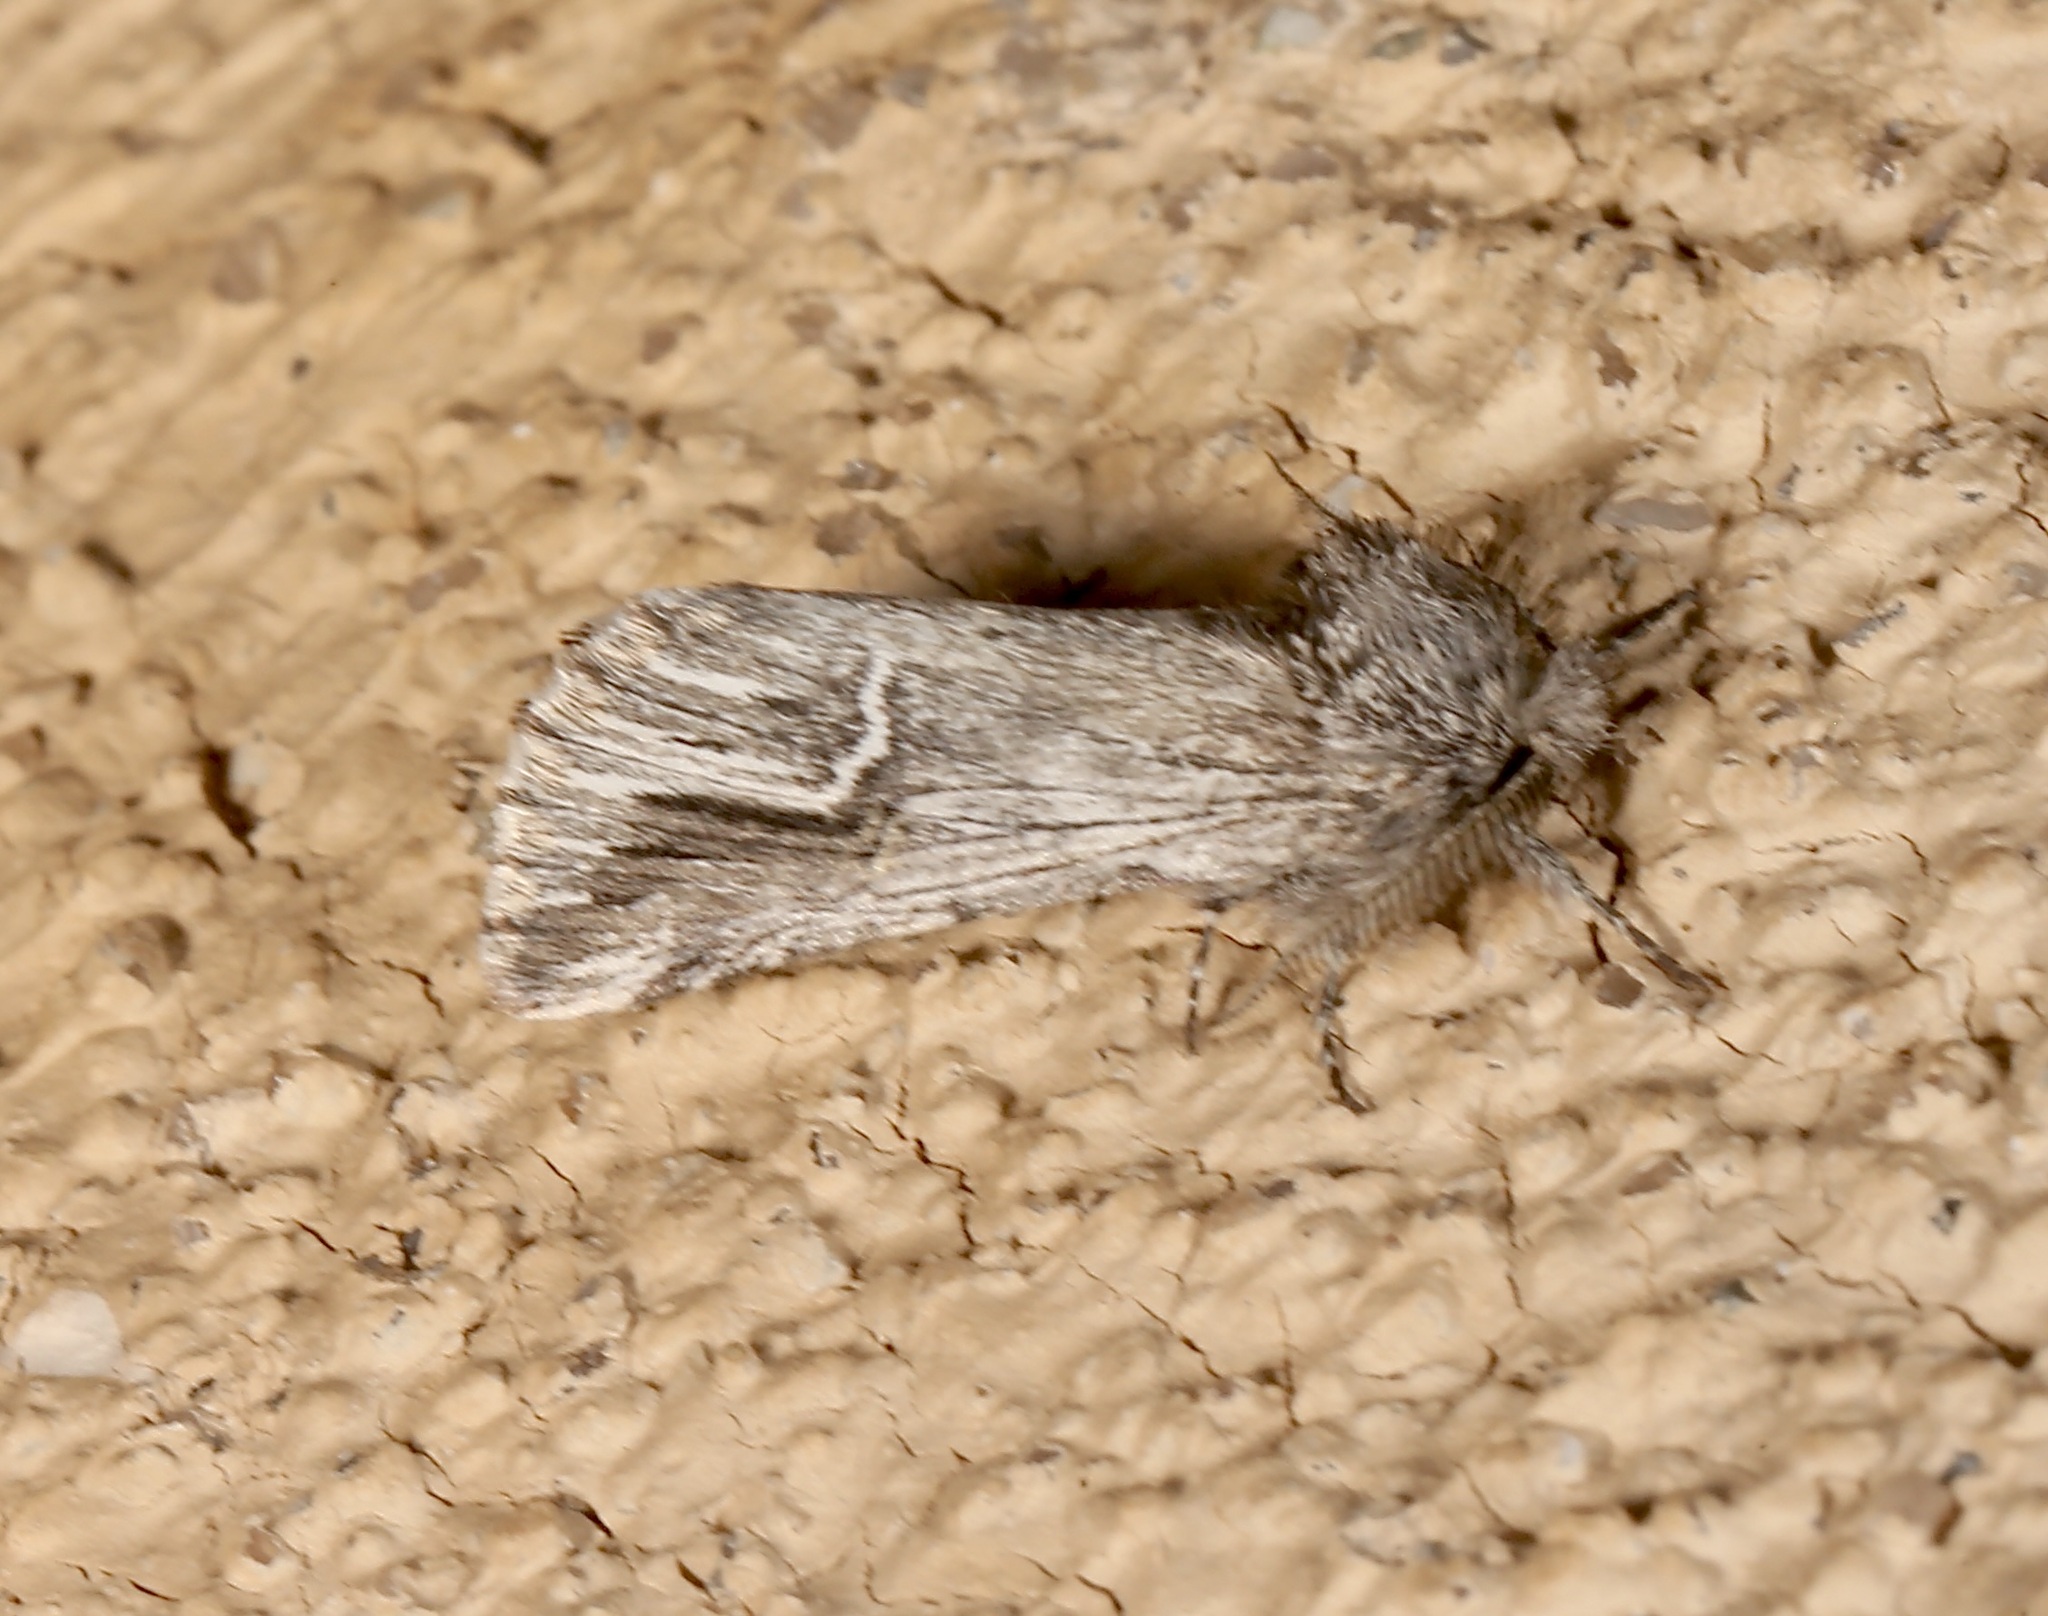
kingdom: Animalia
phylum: Arthropoda
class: Insecta
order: Lepidoptera
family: Notodontidae
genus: Ursia
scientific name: Ursia noctuiformis
